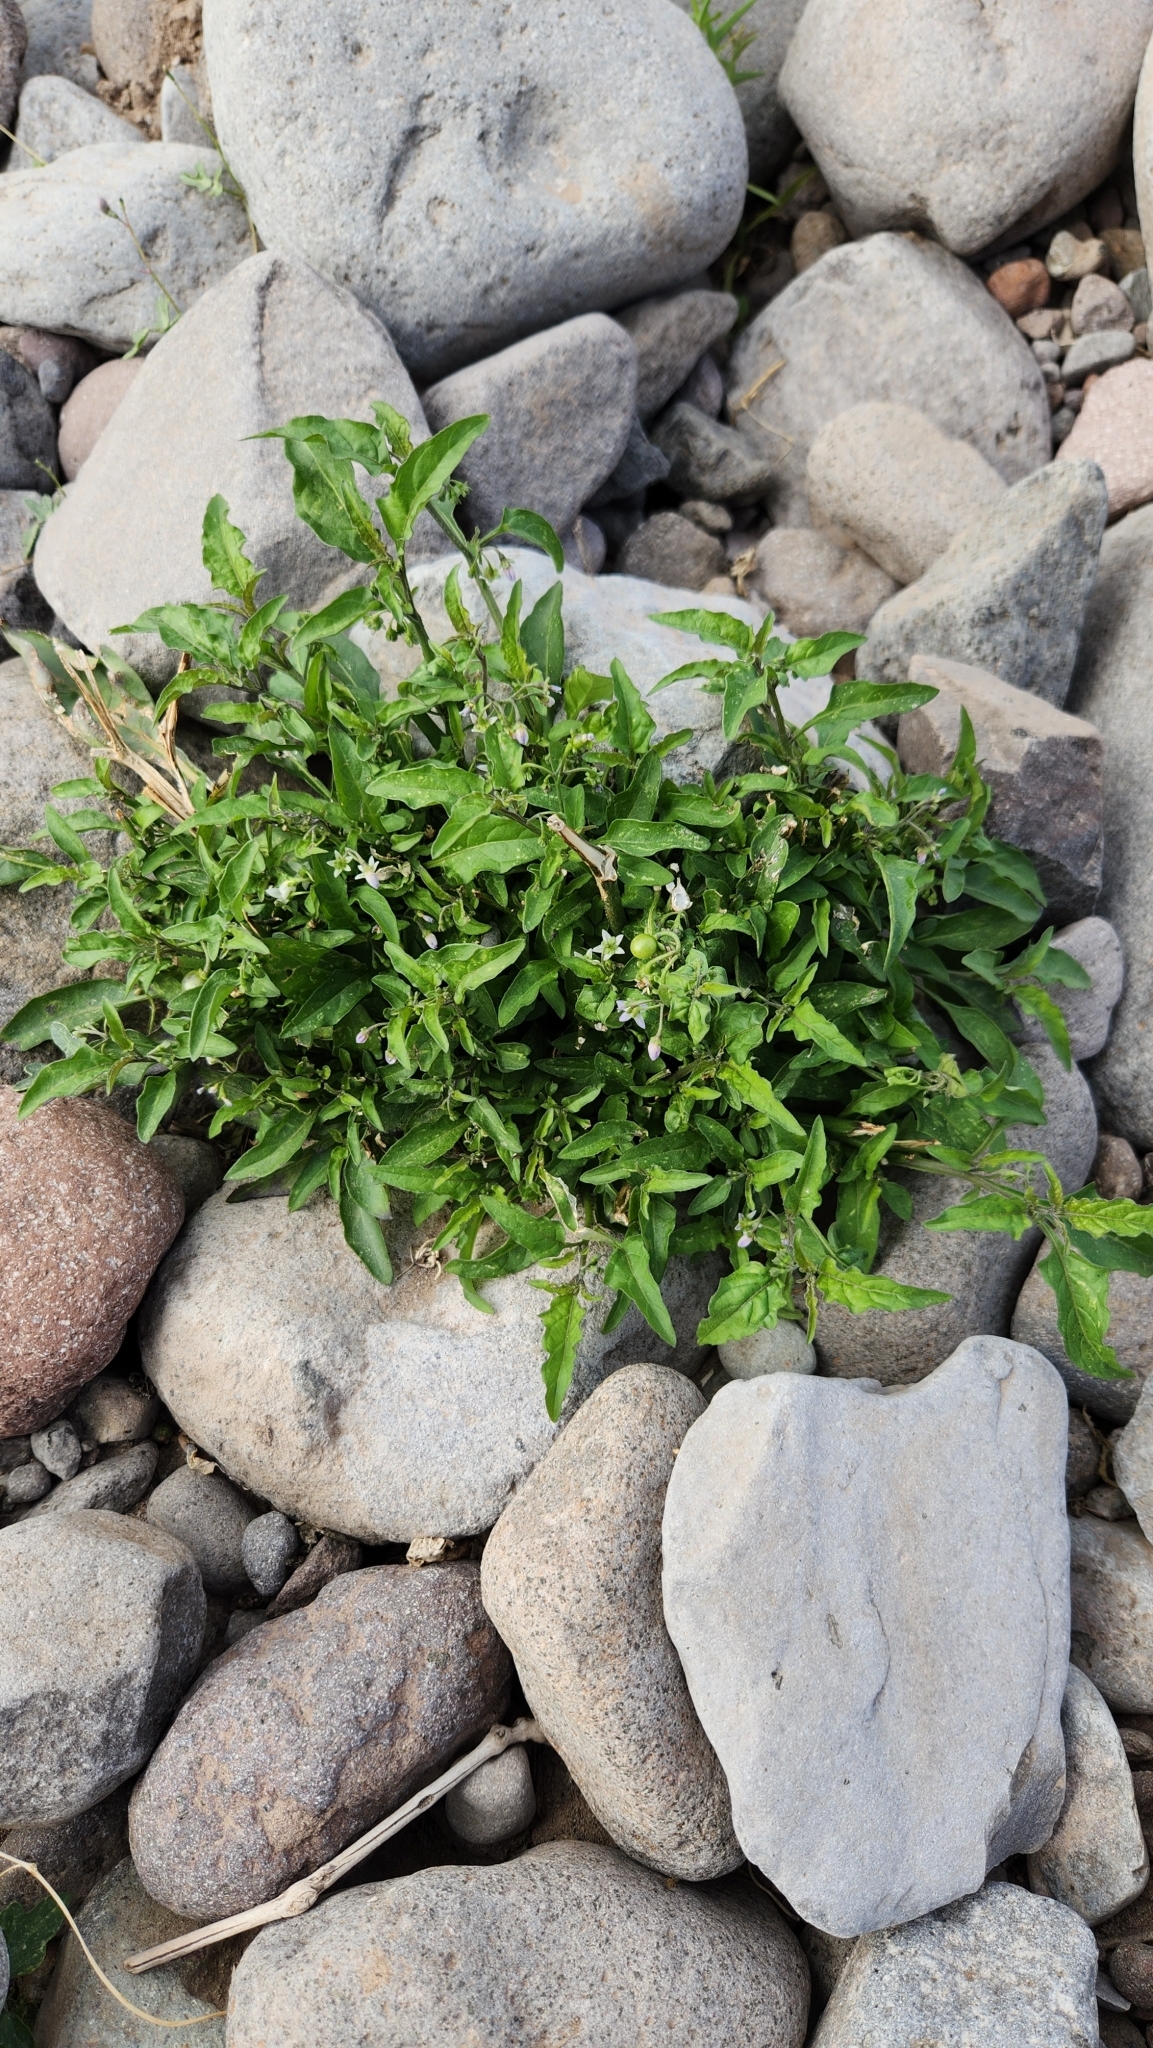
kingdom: Plantae
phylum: Tracheophyta
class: Magnoliopsida
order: Solanales
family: Solanaceae
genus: Solanum
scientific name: Solanum americanum
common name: American black nightshade
